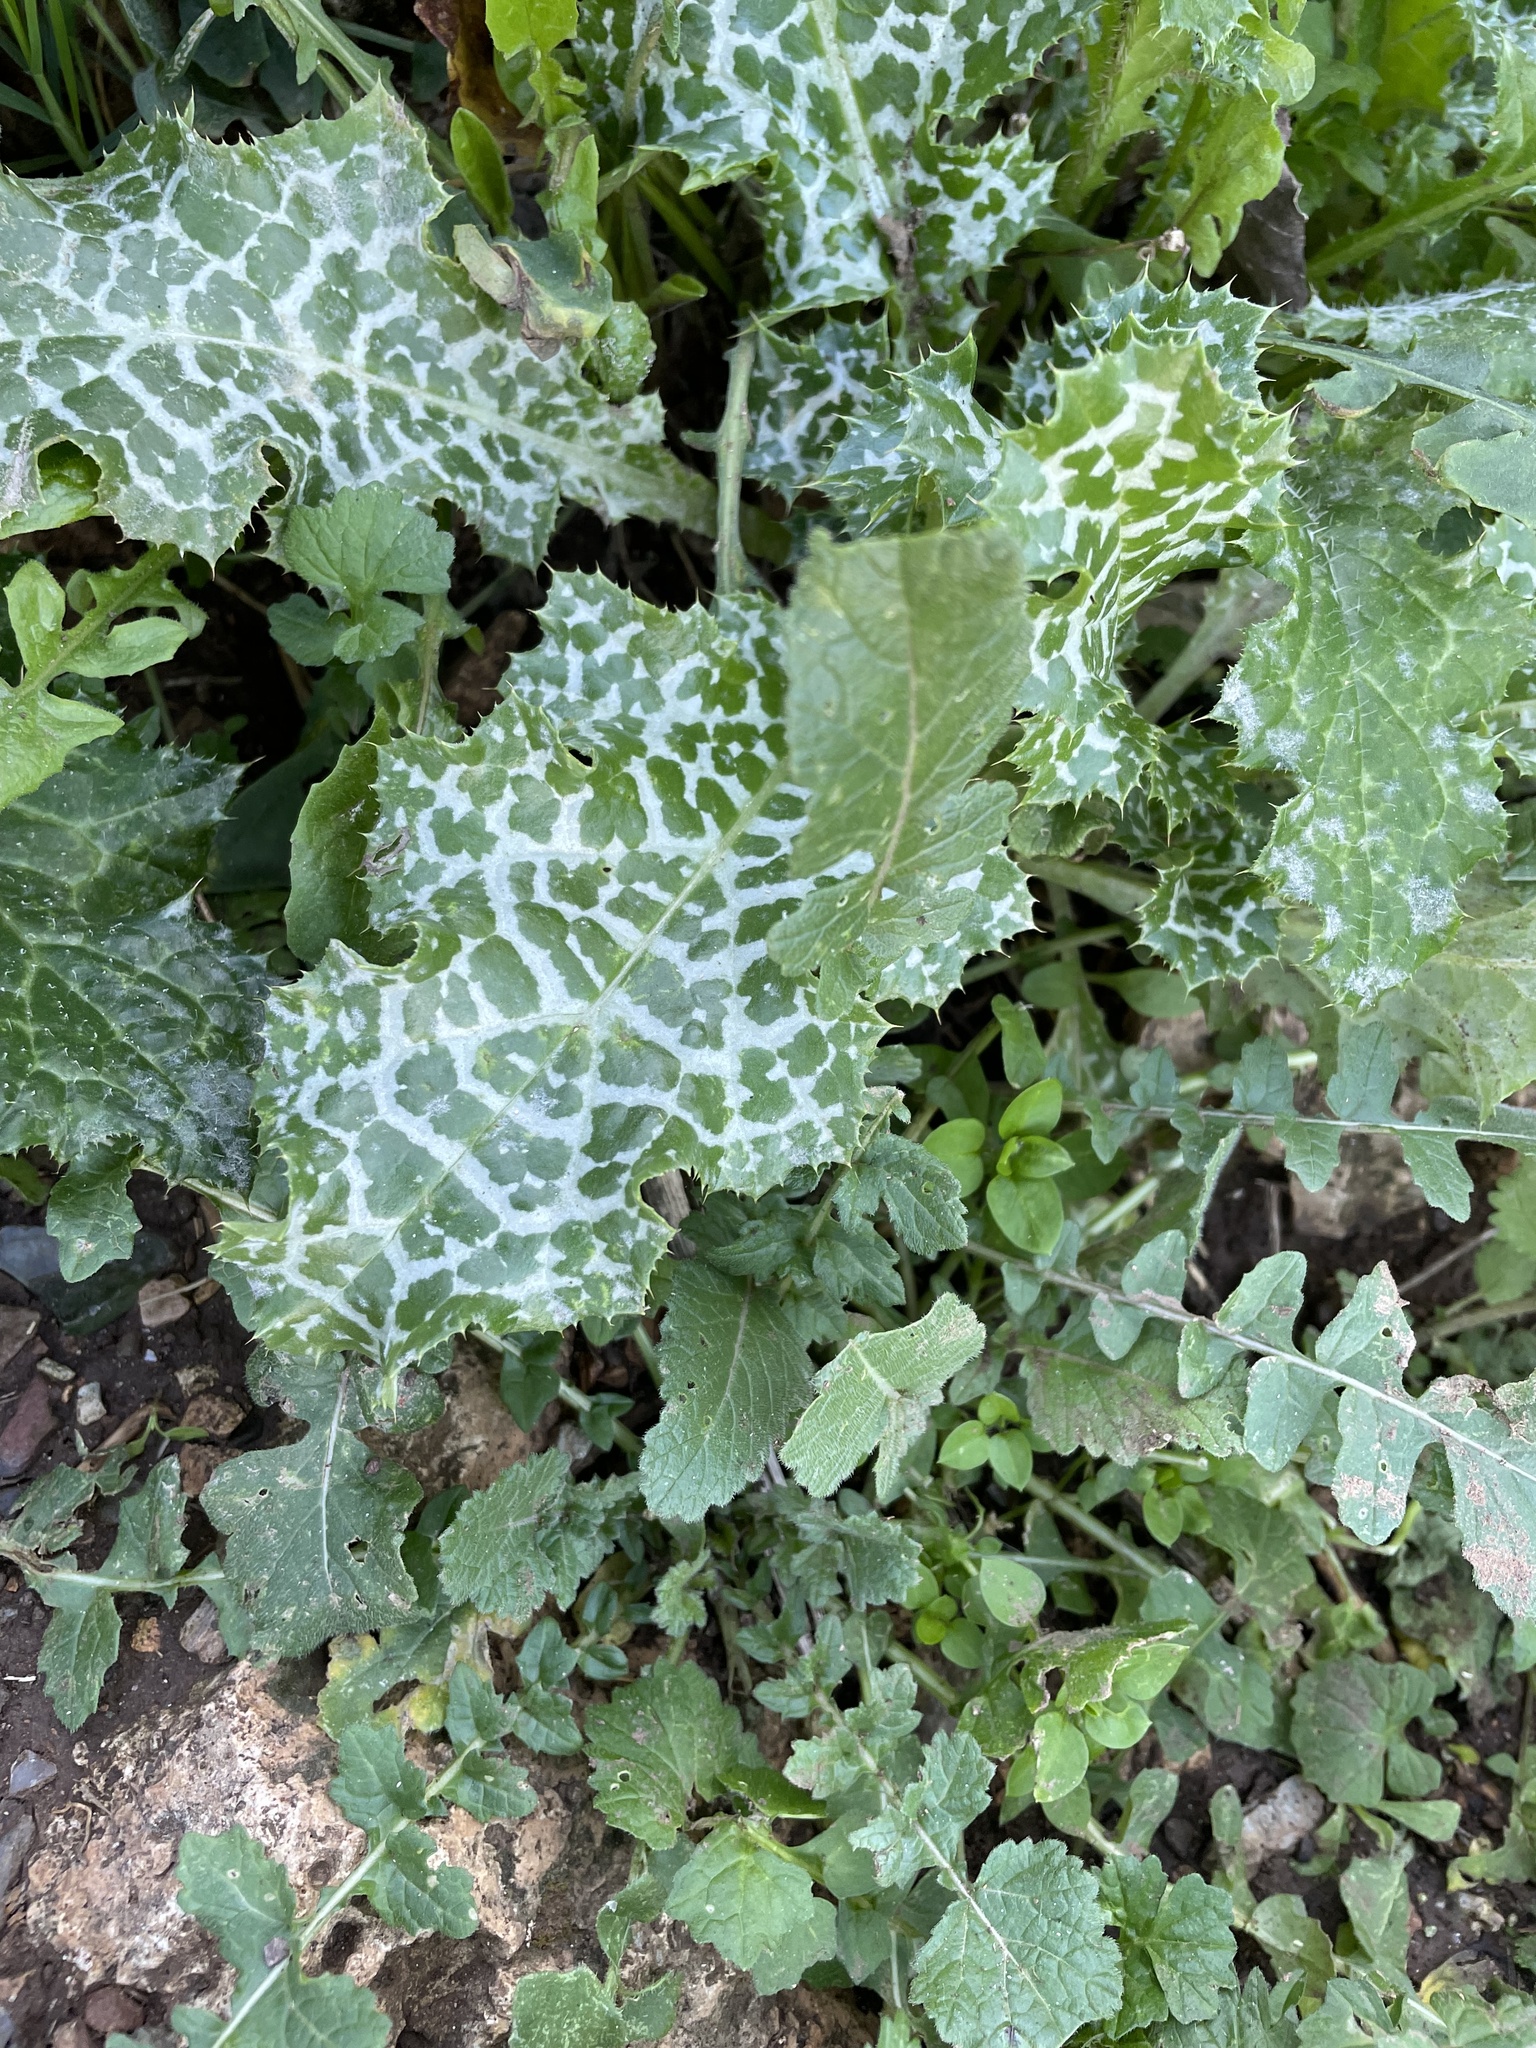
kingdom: Plantae
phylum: Tracheophyta
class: Magnoliopsida
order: Asterales
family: Asteraceae
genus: Silybum
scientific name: Silybum marianum
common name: Milk thistle
